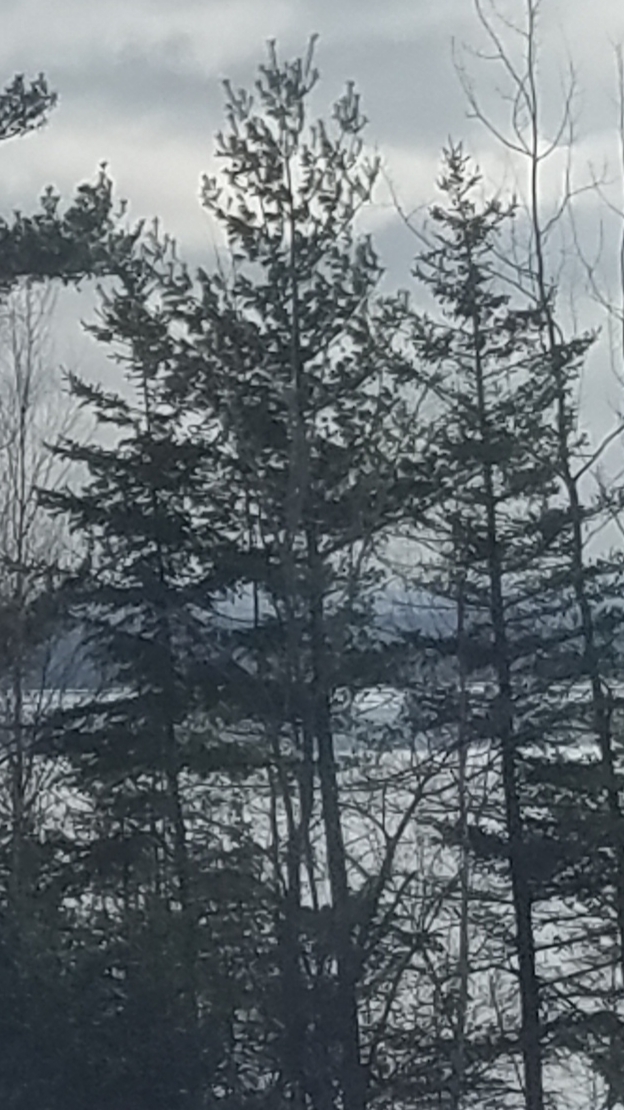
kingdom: Plantae
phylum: Tracheophyta
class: Pinopsida
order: Pinales
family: Pinaceae
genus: Pinus
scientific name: Pinus strobus
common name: Weymouth pine
